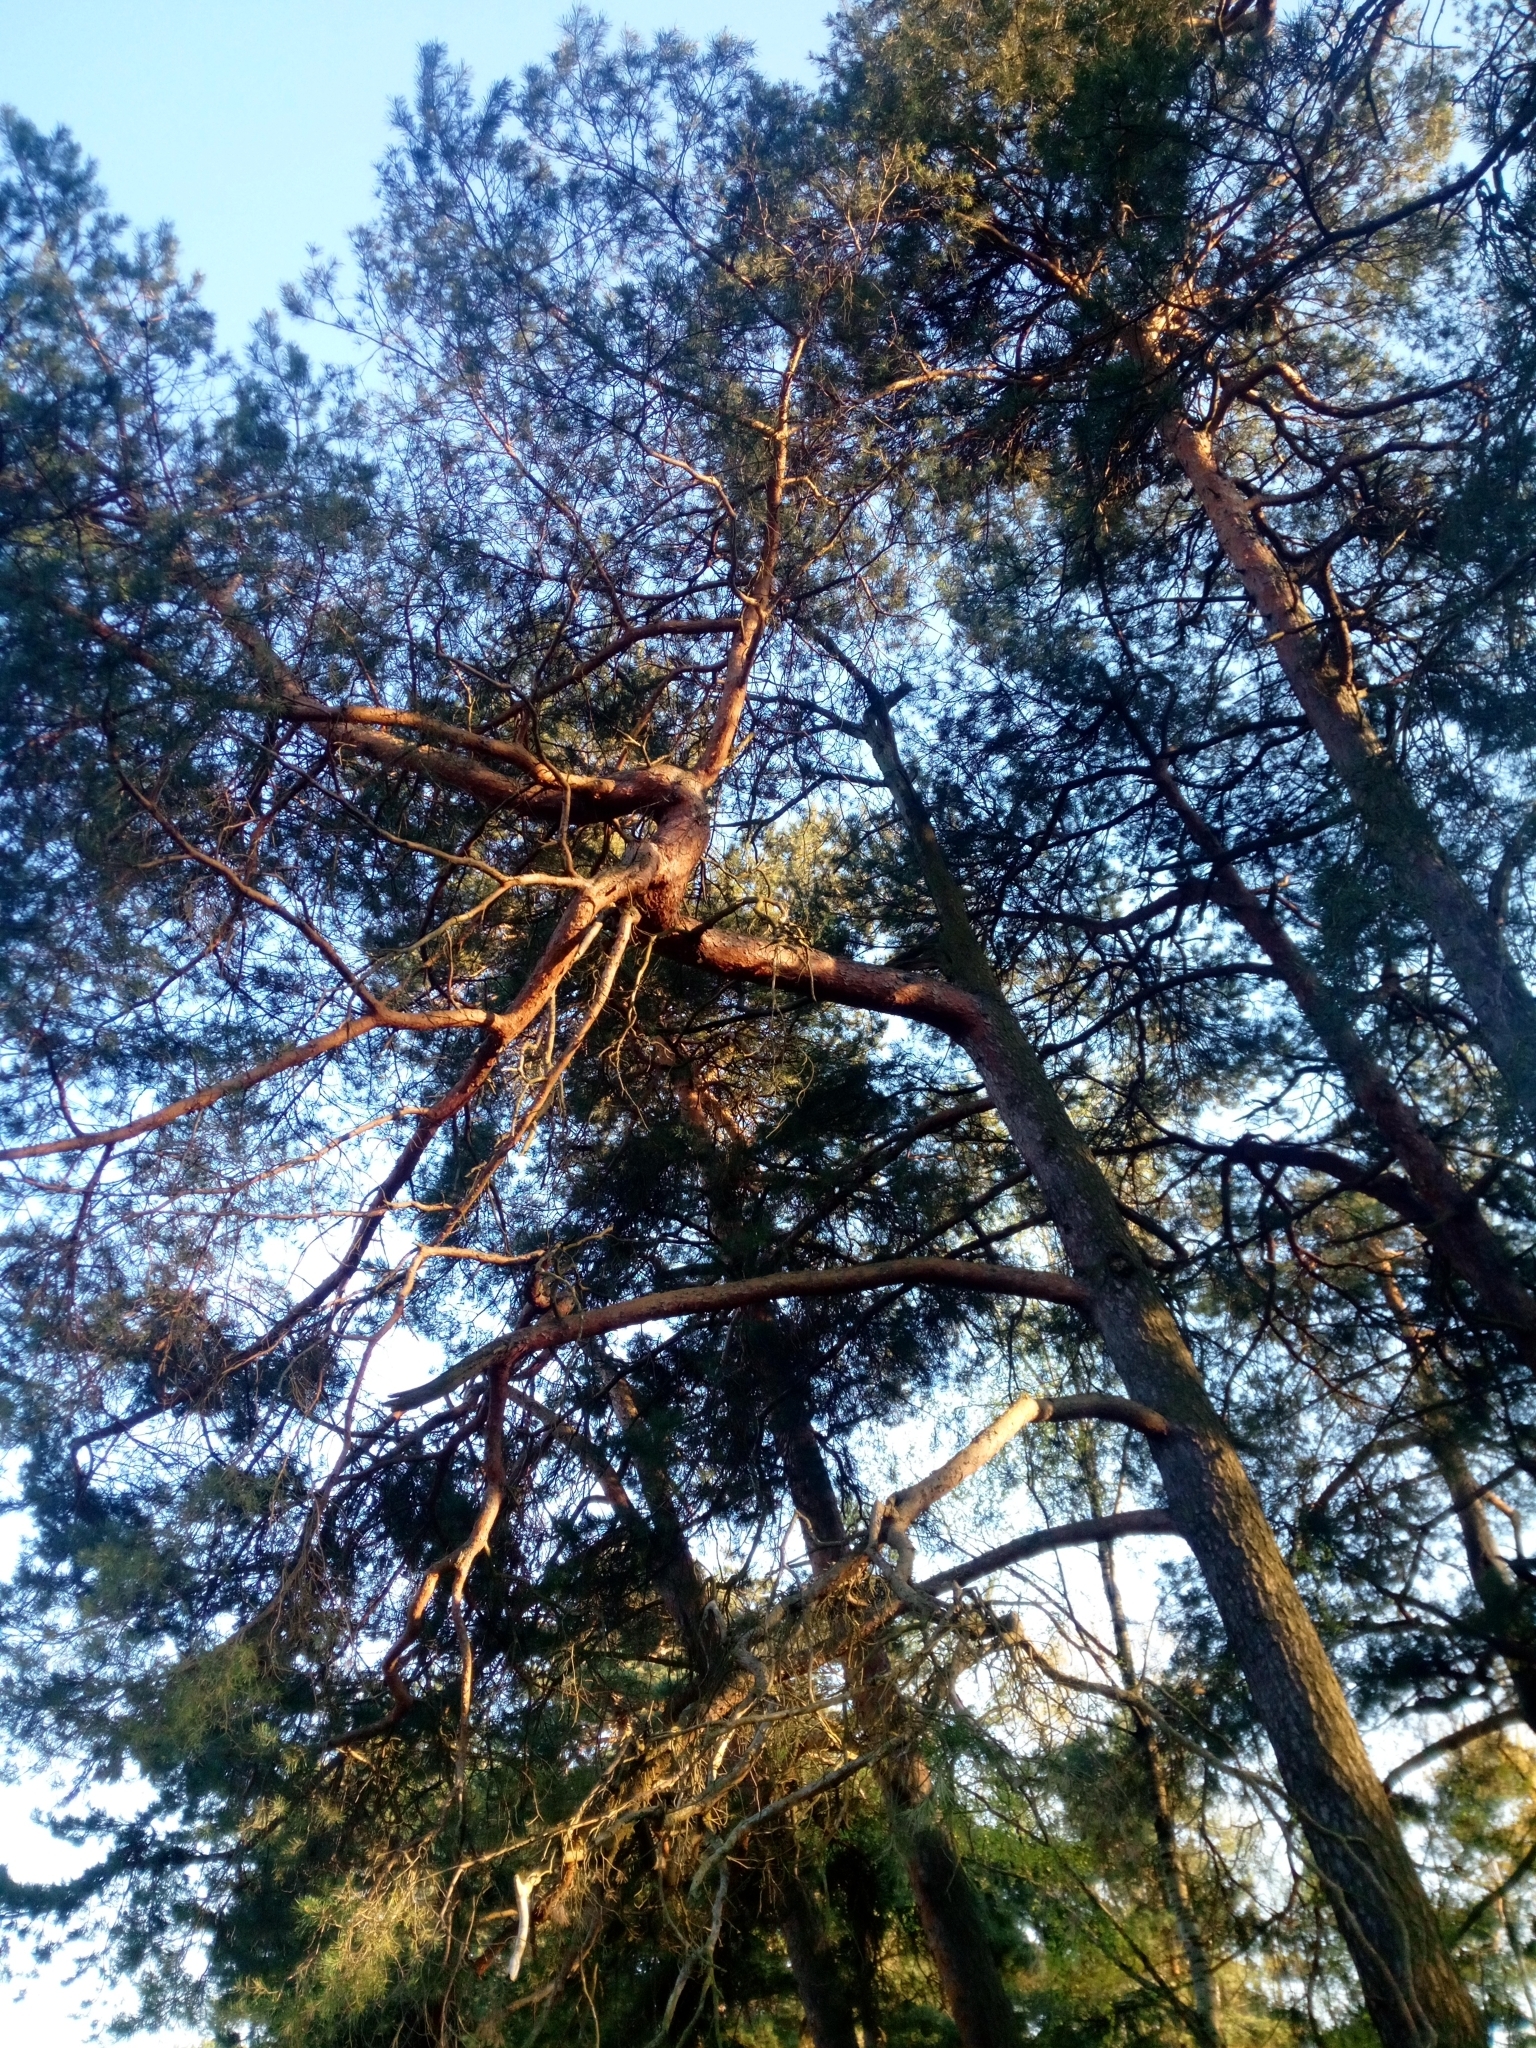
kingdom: Plantae
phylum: Tracheophyta
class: Pinopsida
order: Pinales
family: Pinaceae
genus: Pinus
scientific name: Pinus sylvestris
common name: Scots pine
